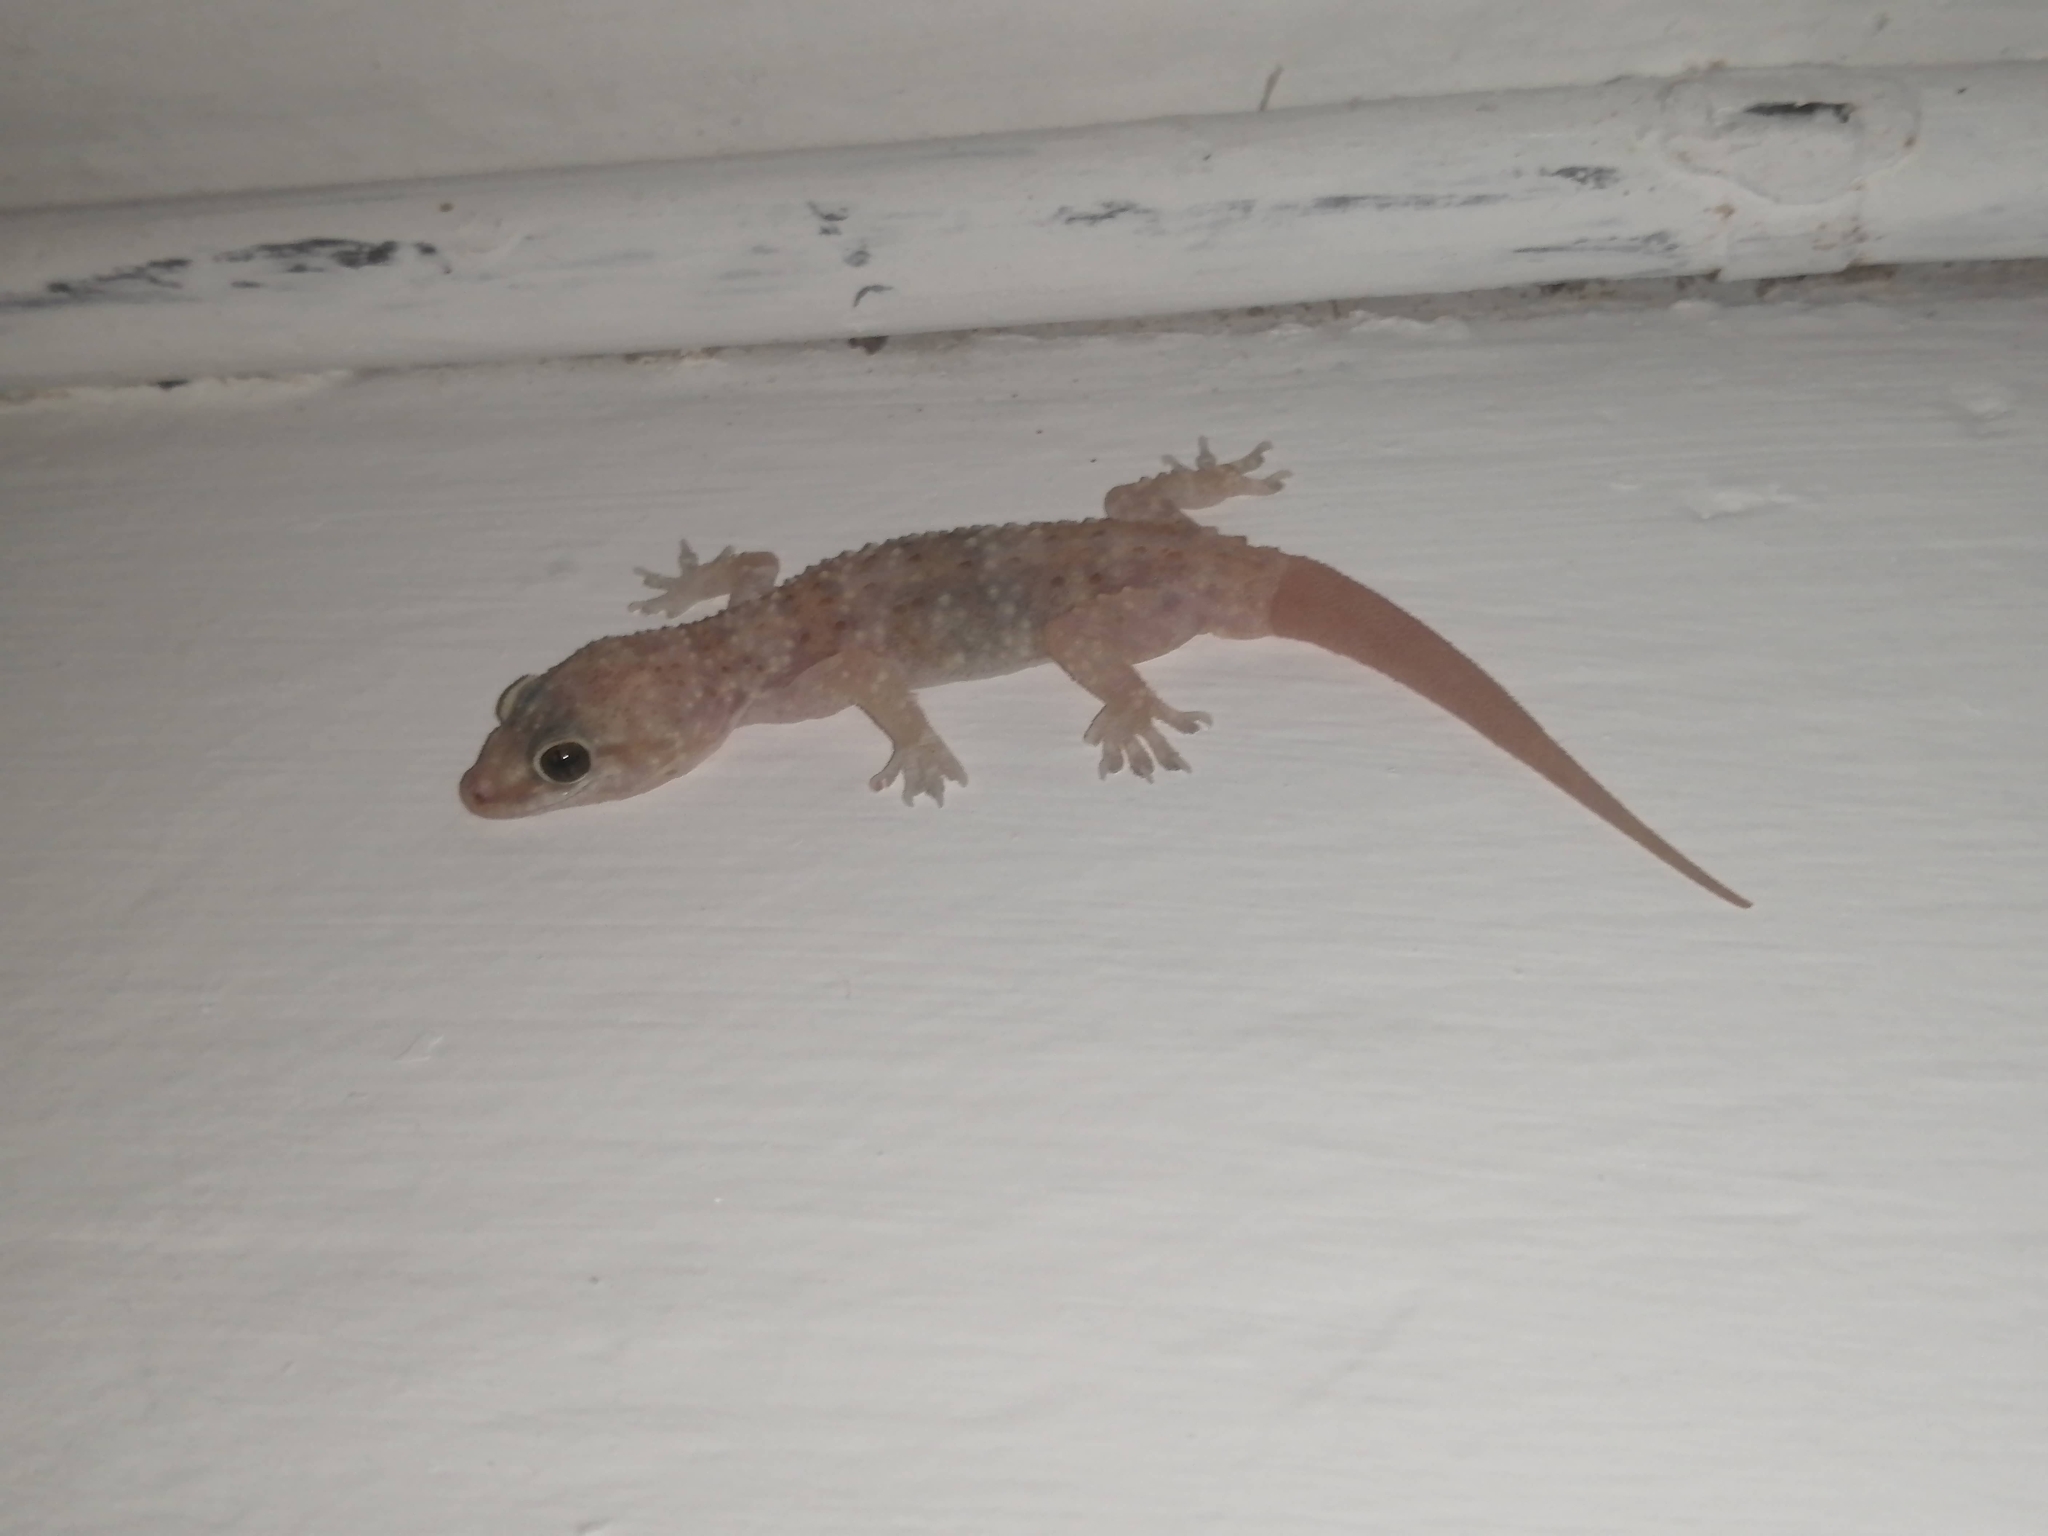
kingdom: Animalia
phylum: Chordata
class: Squamata
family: Gekkonidae
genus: Hemidactylus
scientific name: Hemidactylus turcicus
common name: Turkish gecko
